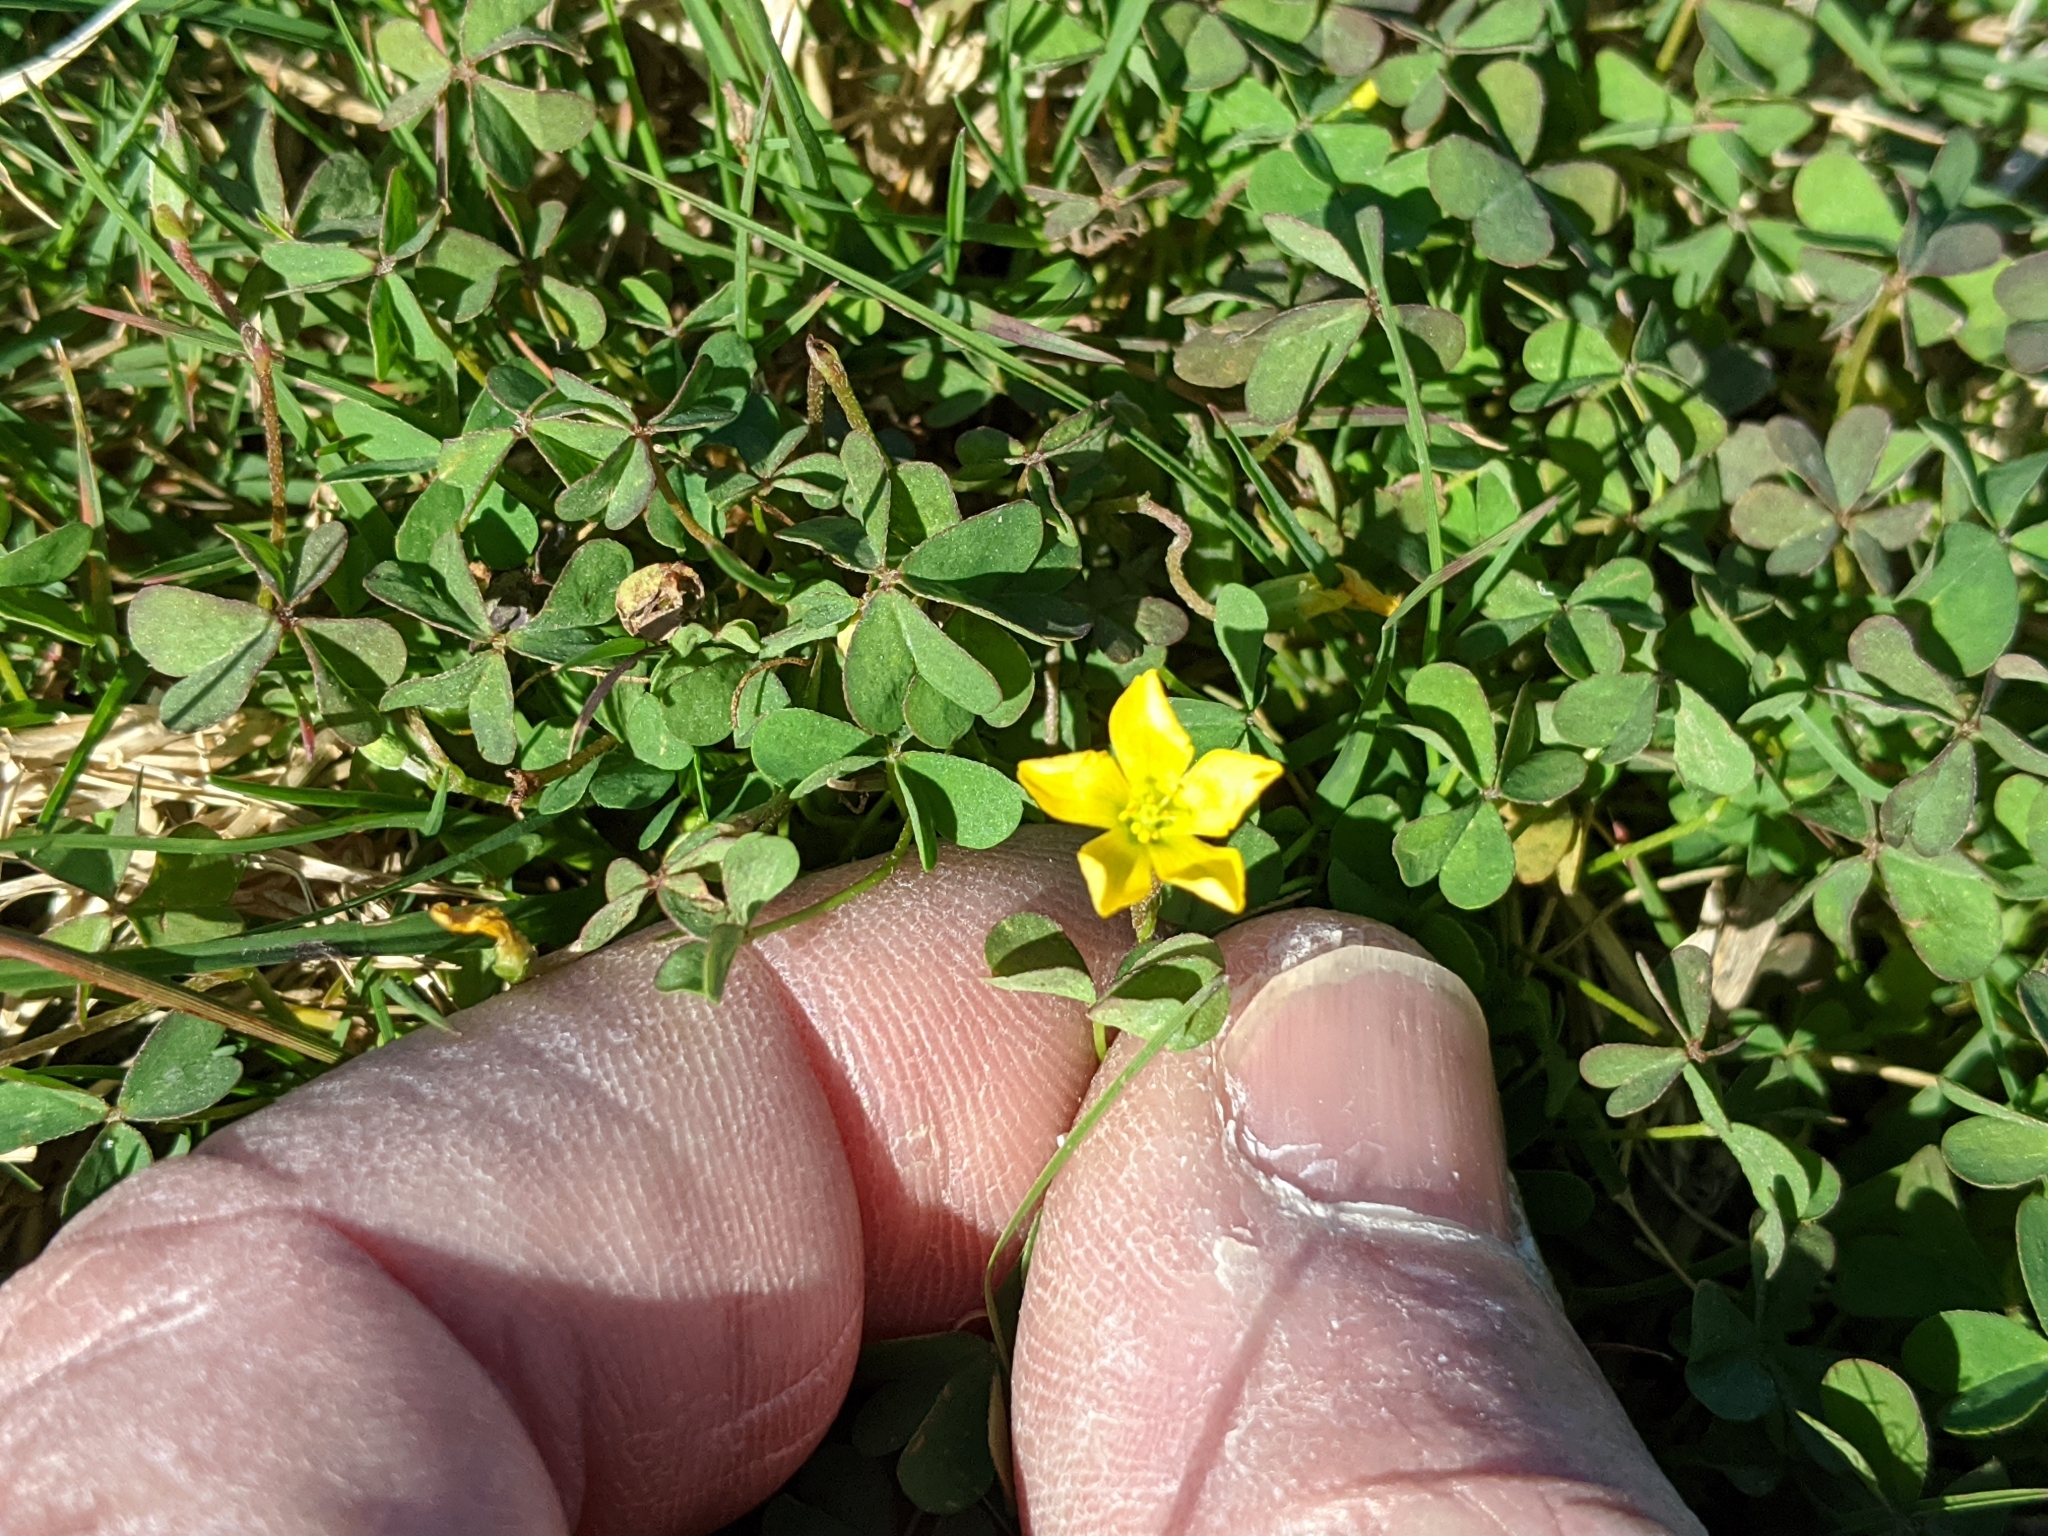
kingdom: Plantae
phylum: Tracheophyta
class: Magnoliopsida
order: Oxalidales
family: Oxalidaceae
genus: Oxalis
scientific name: Oxalis corniculata
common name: Procumbent yellow-sorrel
